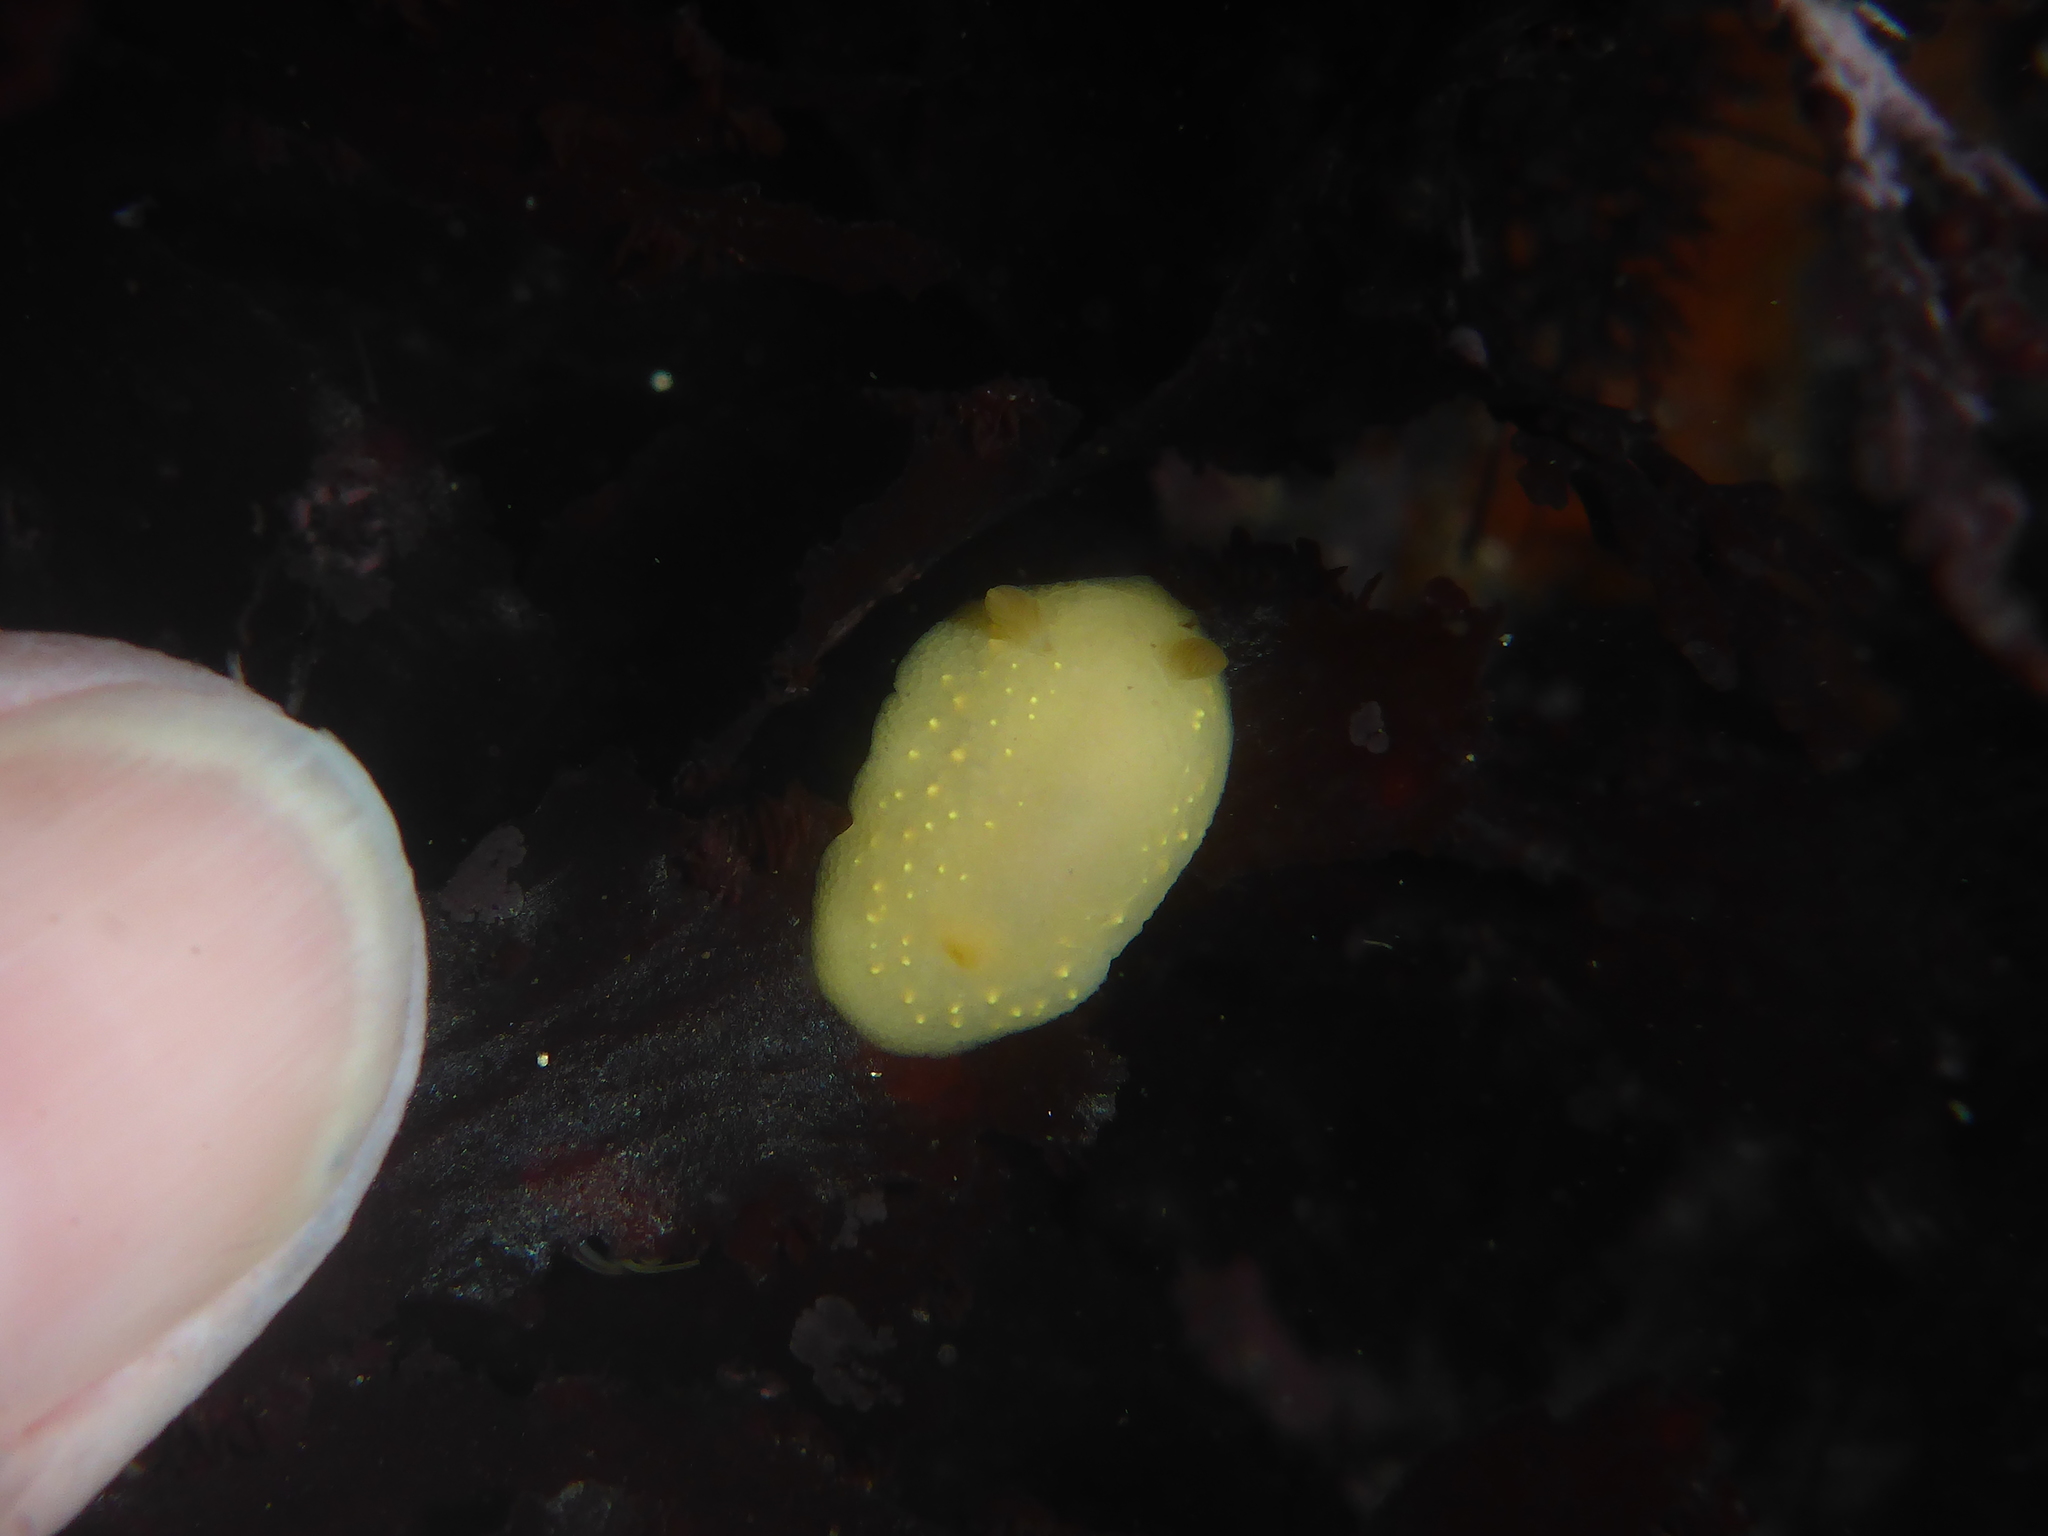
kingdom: Animalia
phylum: Mollusca
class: Gastropoda
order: Nudibranchia
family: Cadlinidae
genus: Cadlina
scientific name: Cadlina modesta
